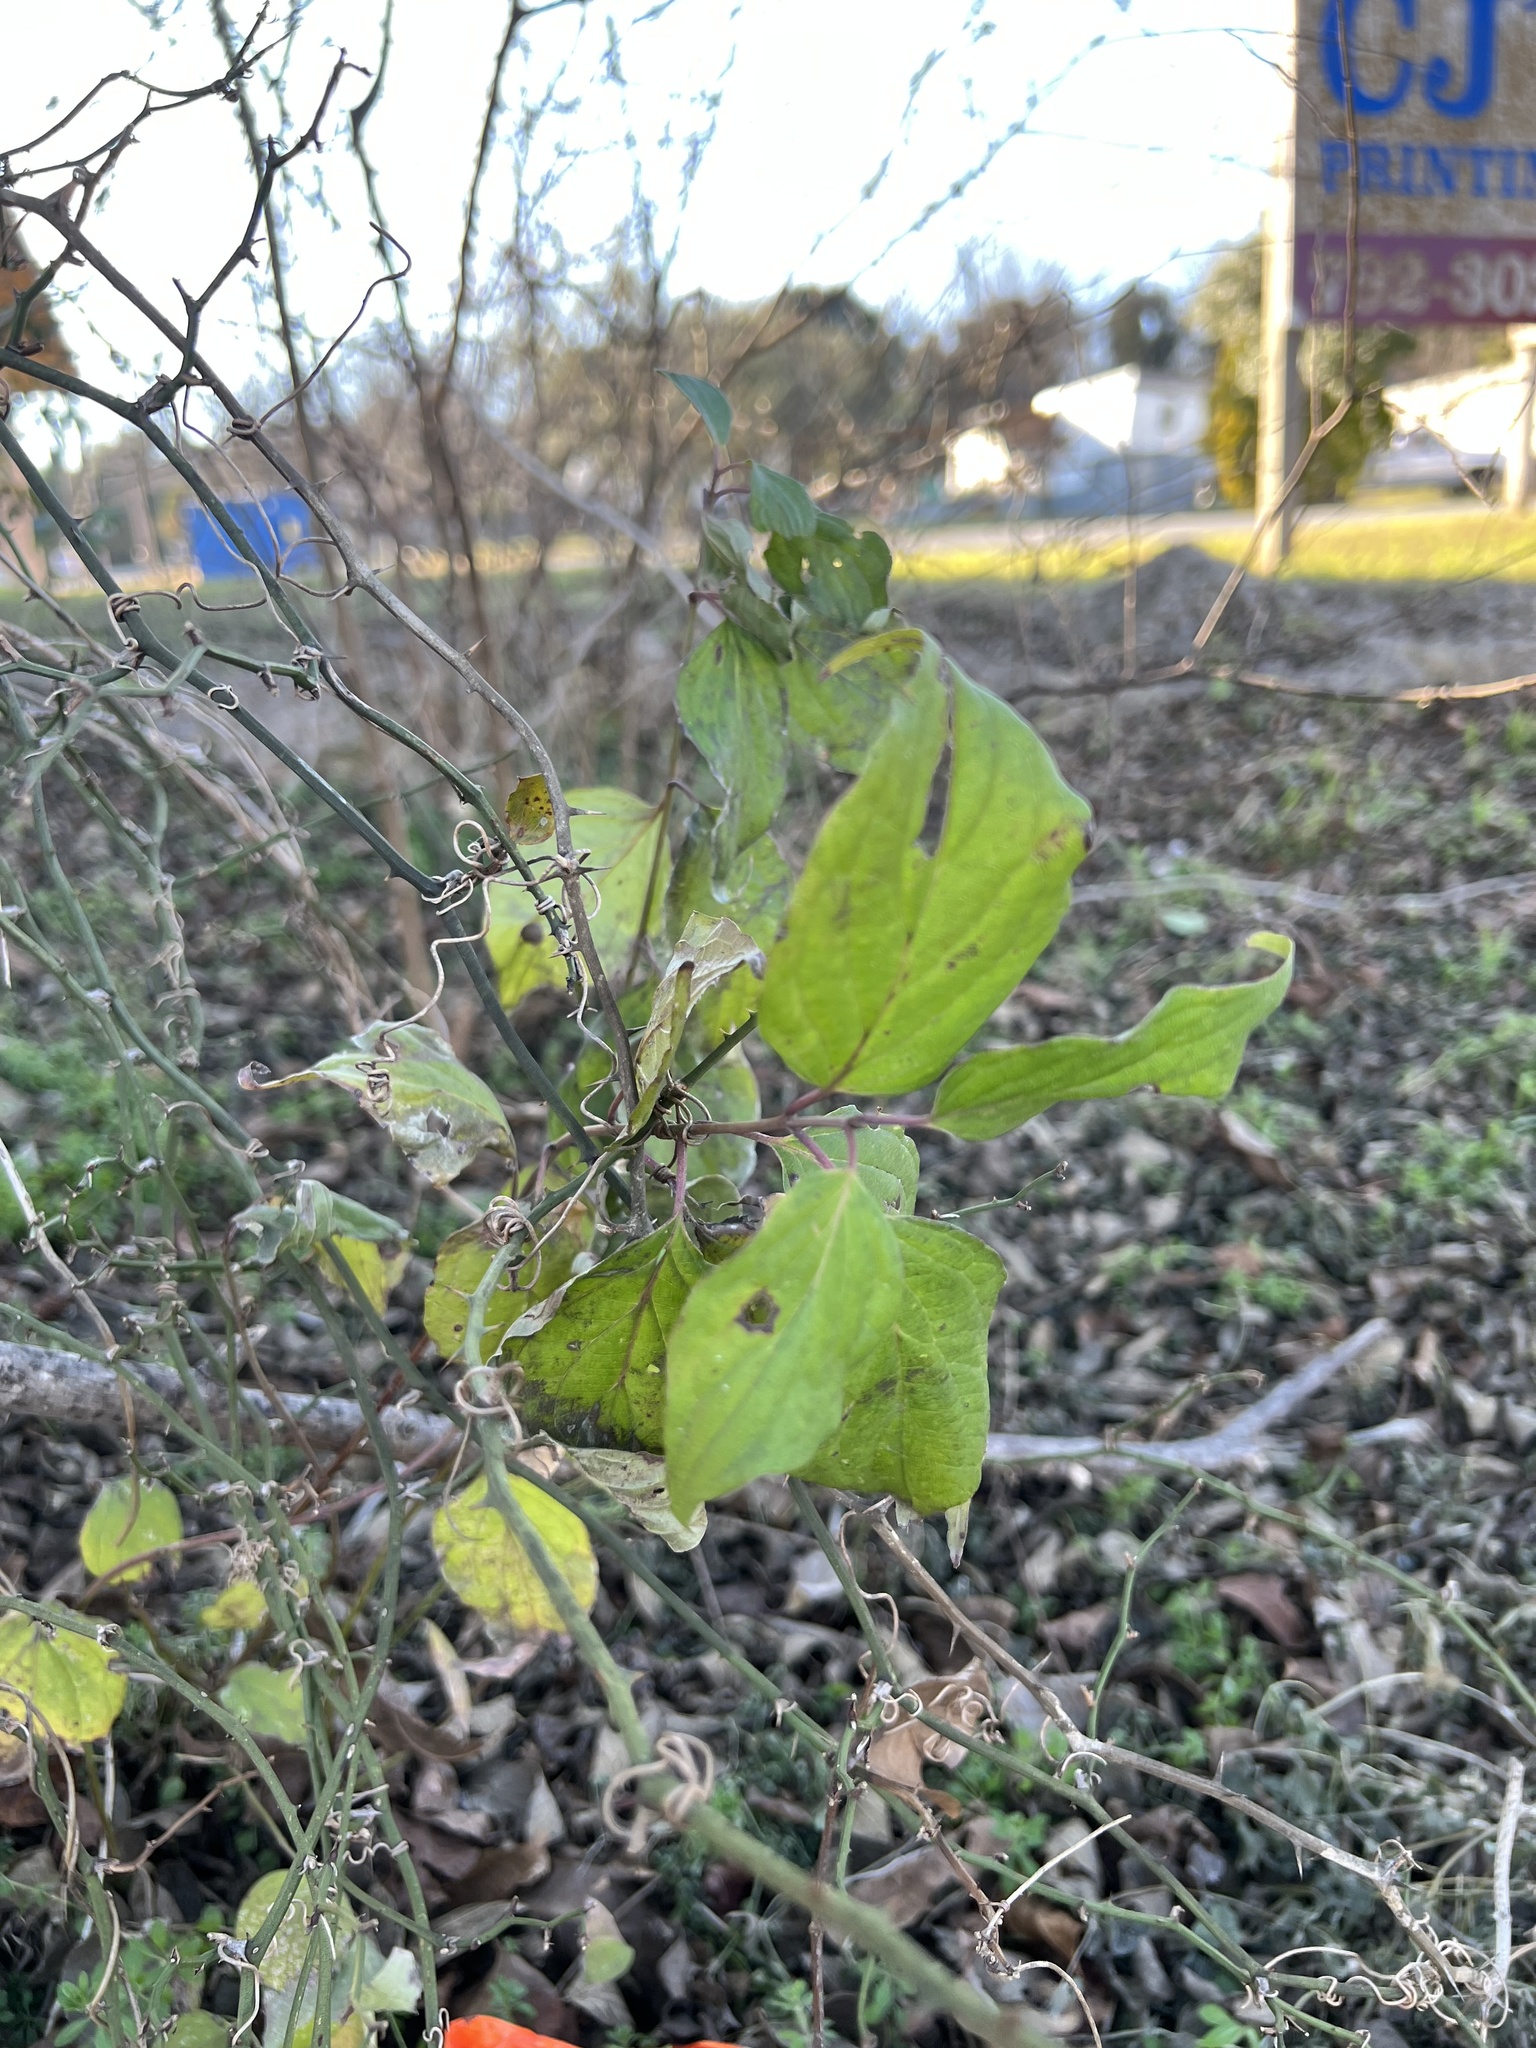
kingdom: Plantae
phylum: Tracheophyta
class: Magnoliopsida
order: Cornales
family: Cornaceae
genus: Cornus
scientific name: Cornus drummondii
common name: Rough-leaf dogwood
